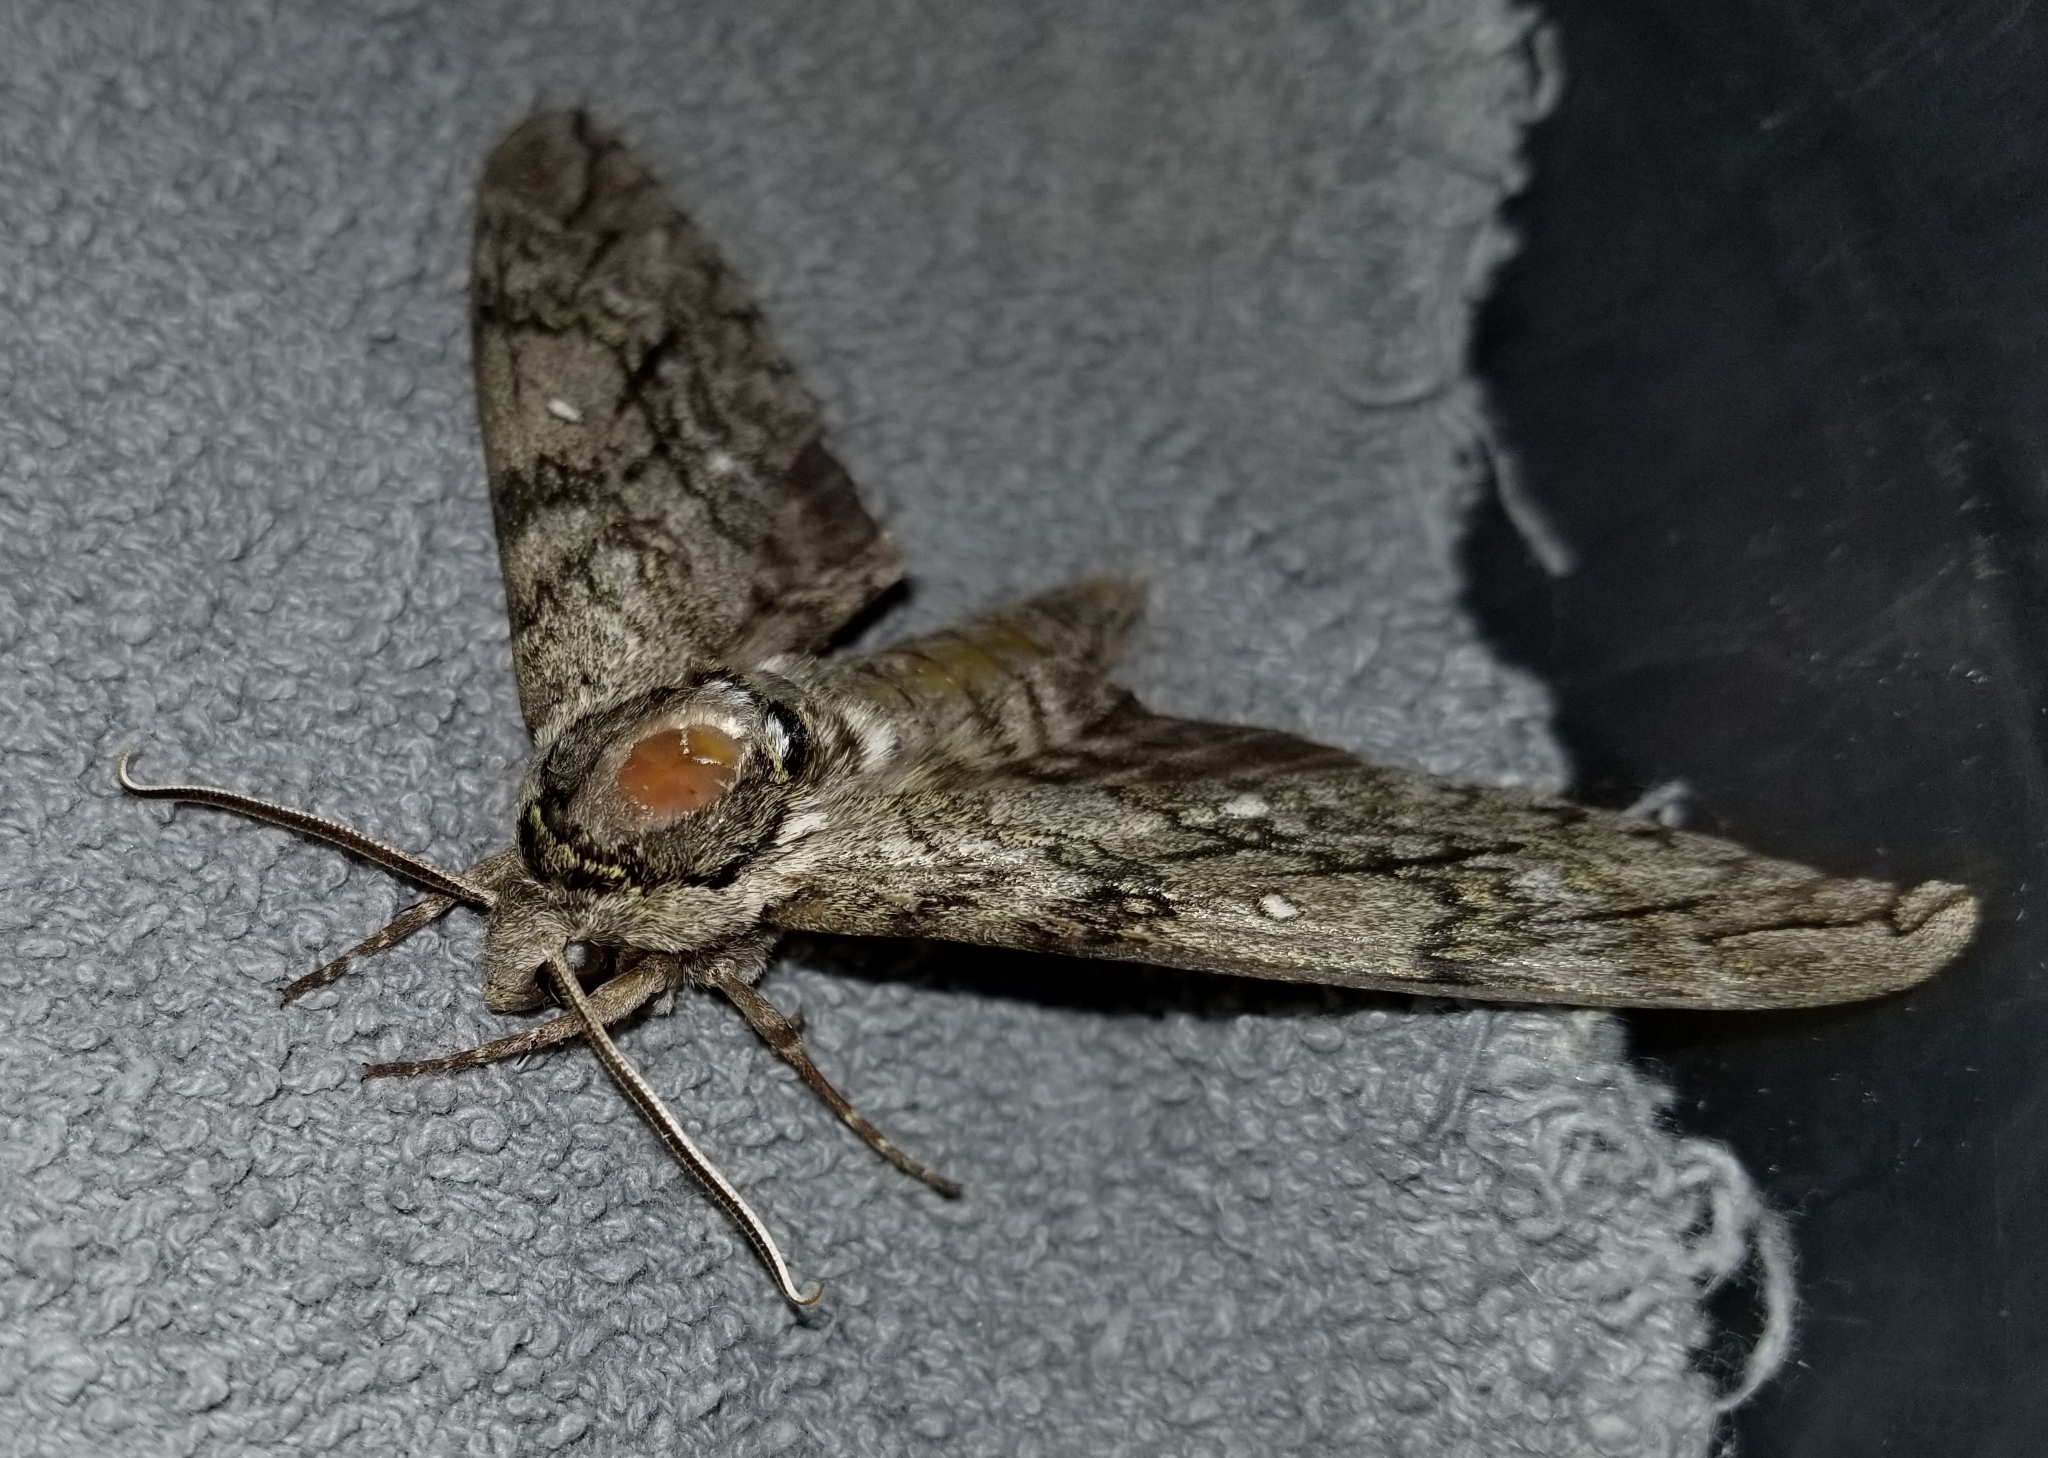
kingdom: Animalia
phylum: Arthropoda
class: Insecta
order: Lepidoptera
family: Sphingidae
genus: Ceratomia
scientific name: Ceratomia undulosa
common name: Waved sphinx
